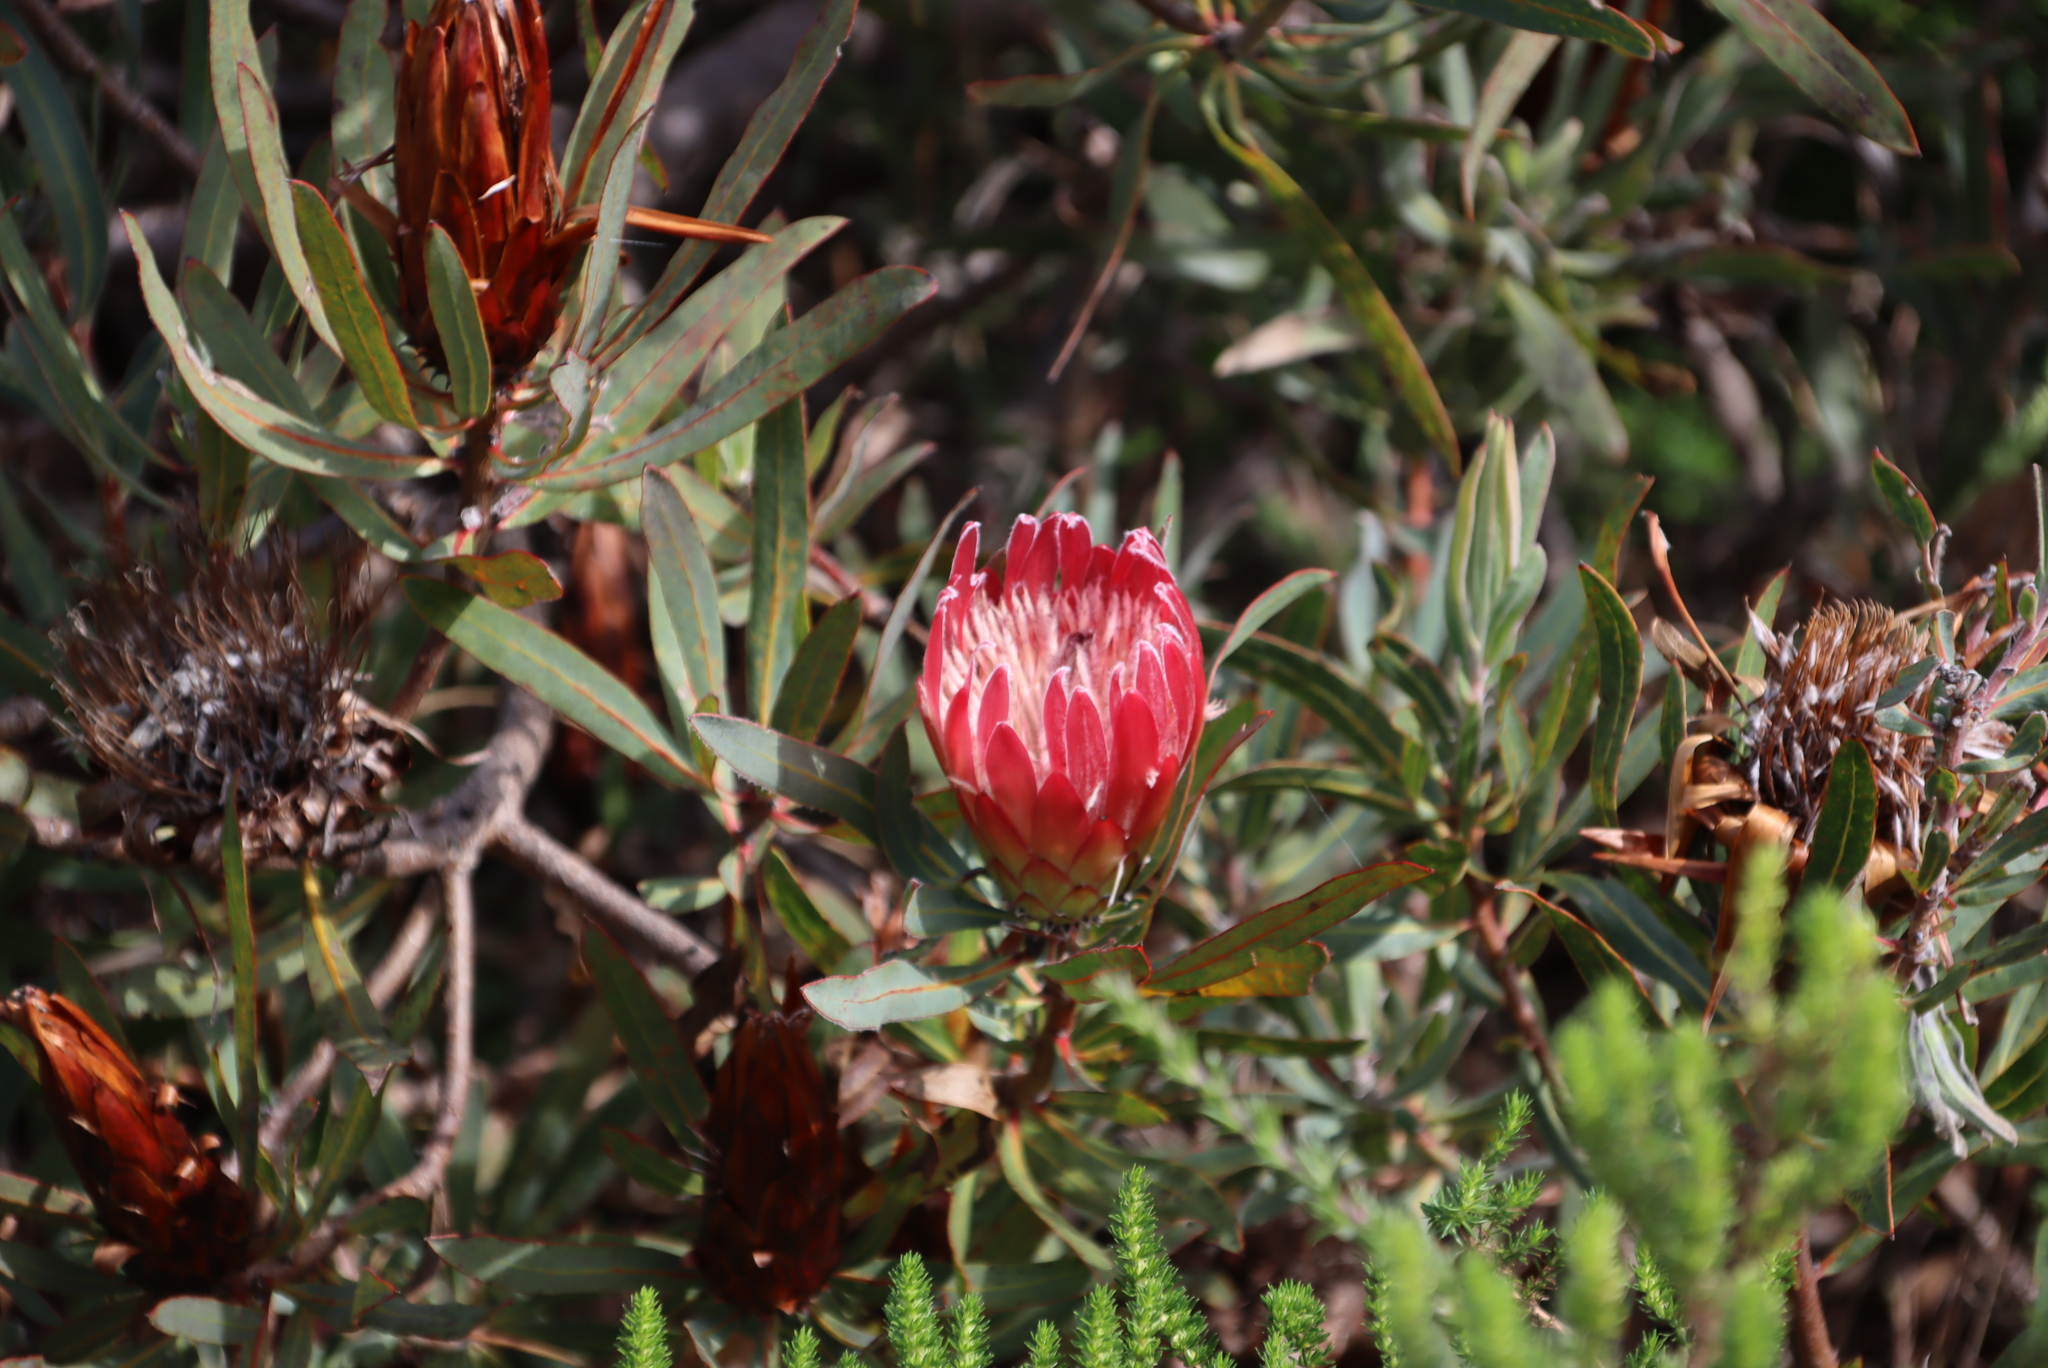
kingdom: Plantae
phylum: Tracheophyta
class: Magnoliopsida
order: Proteales
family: Proteaceae
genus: Protea
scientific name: Protea burchellii
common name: Burchell's sugarbush
